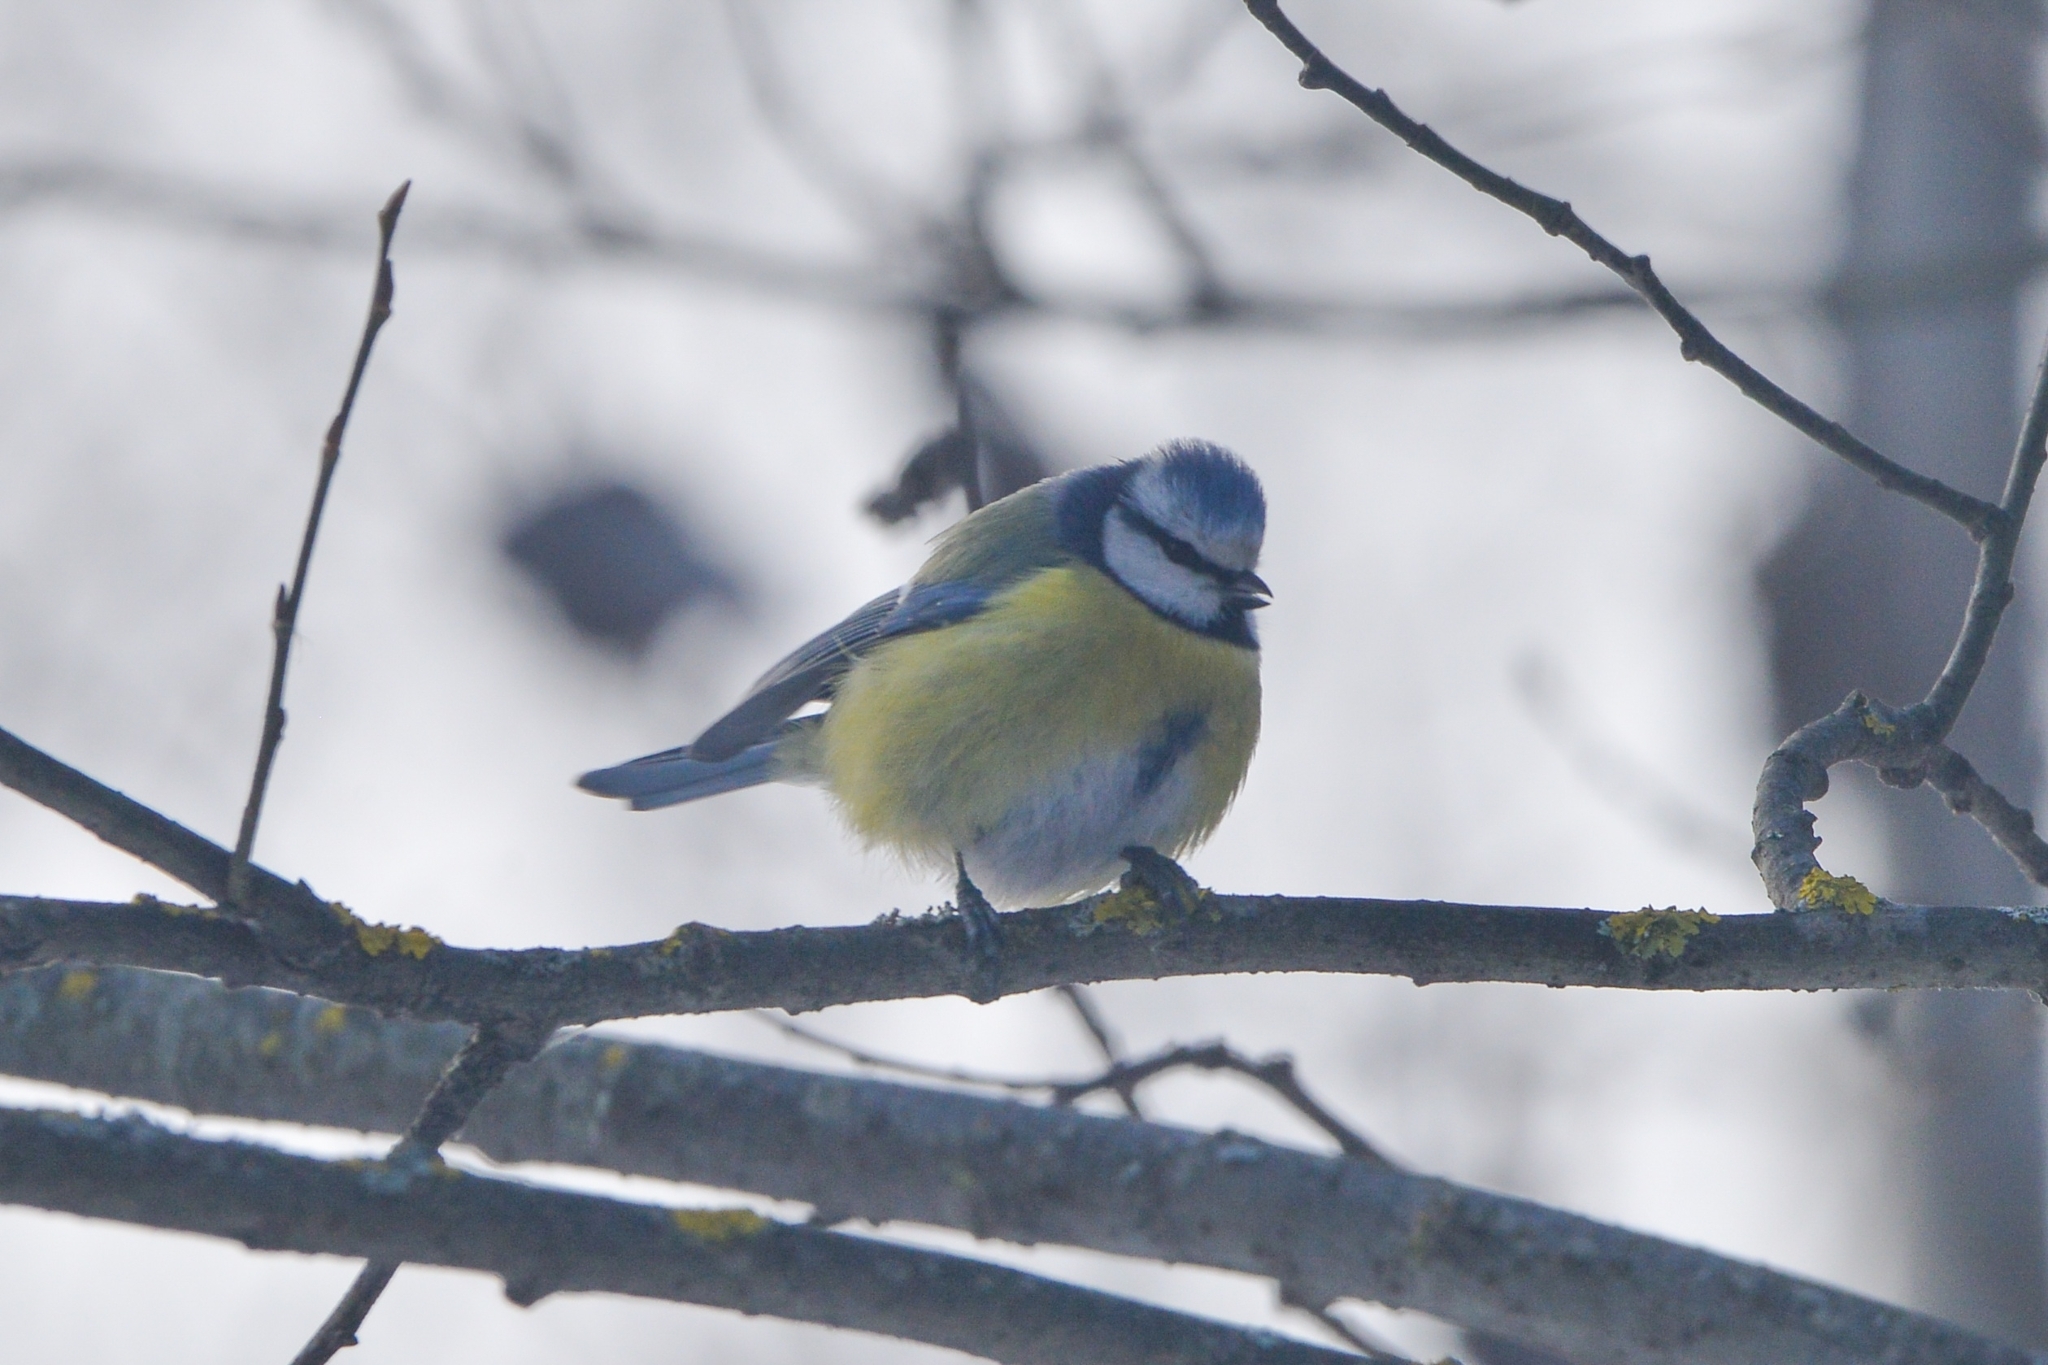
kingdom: Animalia
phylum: Chordata
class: Aves
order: Passeriformes
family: Paridae
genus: Cyanistes
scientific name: Cyanistes caeruleus
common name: Eurasian blue tit
